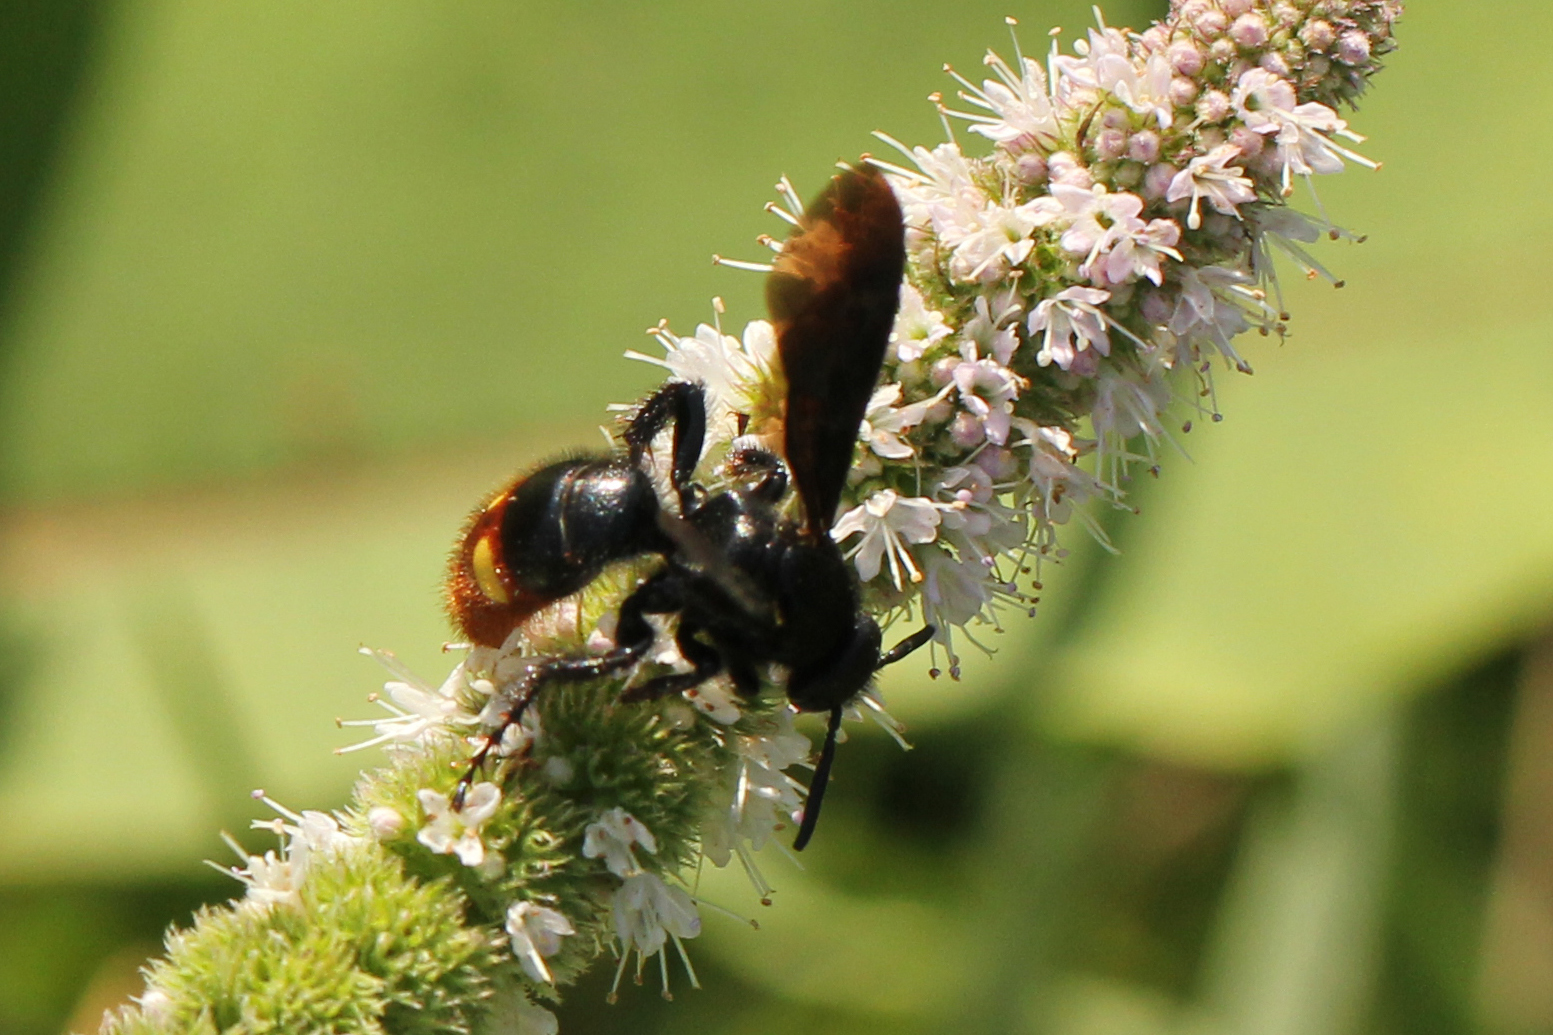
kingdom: Animalia
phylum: Arthropoda
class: Insecta
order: Hymenoptera
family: Scoliidae
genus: Scolia
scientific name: Scolia dubia
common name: Blue-winged scoliid wasp
